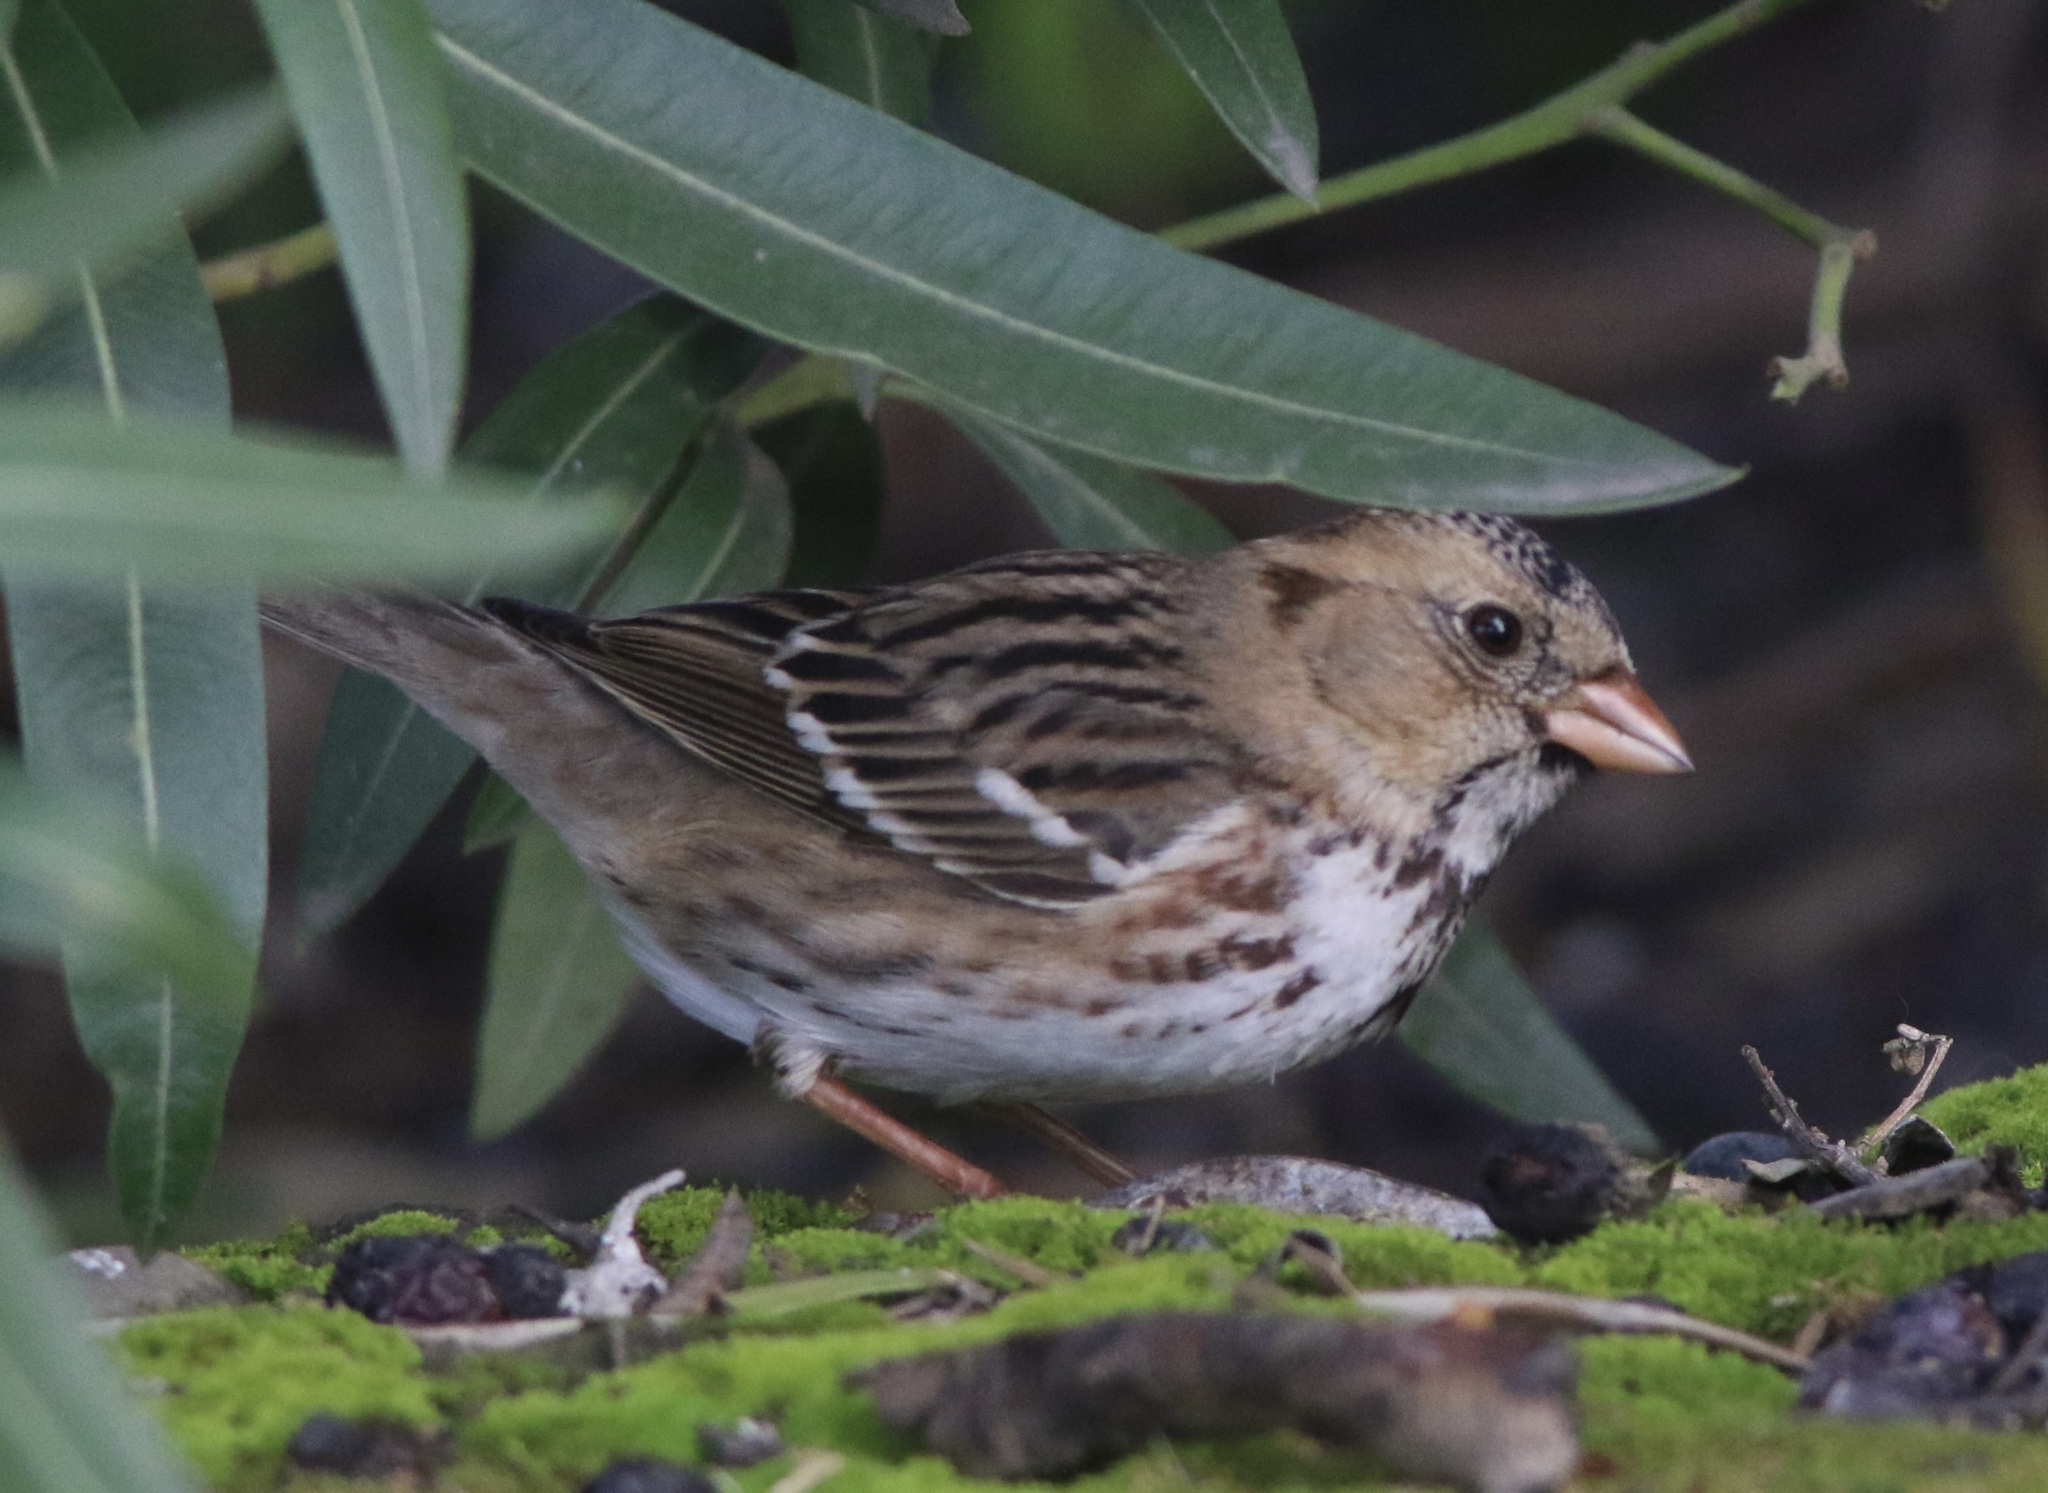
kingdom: Animalia
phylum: Chordata
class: Aves
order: Passeriformes
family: Passerellidae
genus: Zonotrichia
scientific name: Zonotrichia querula
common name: Harris's sparrow
